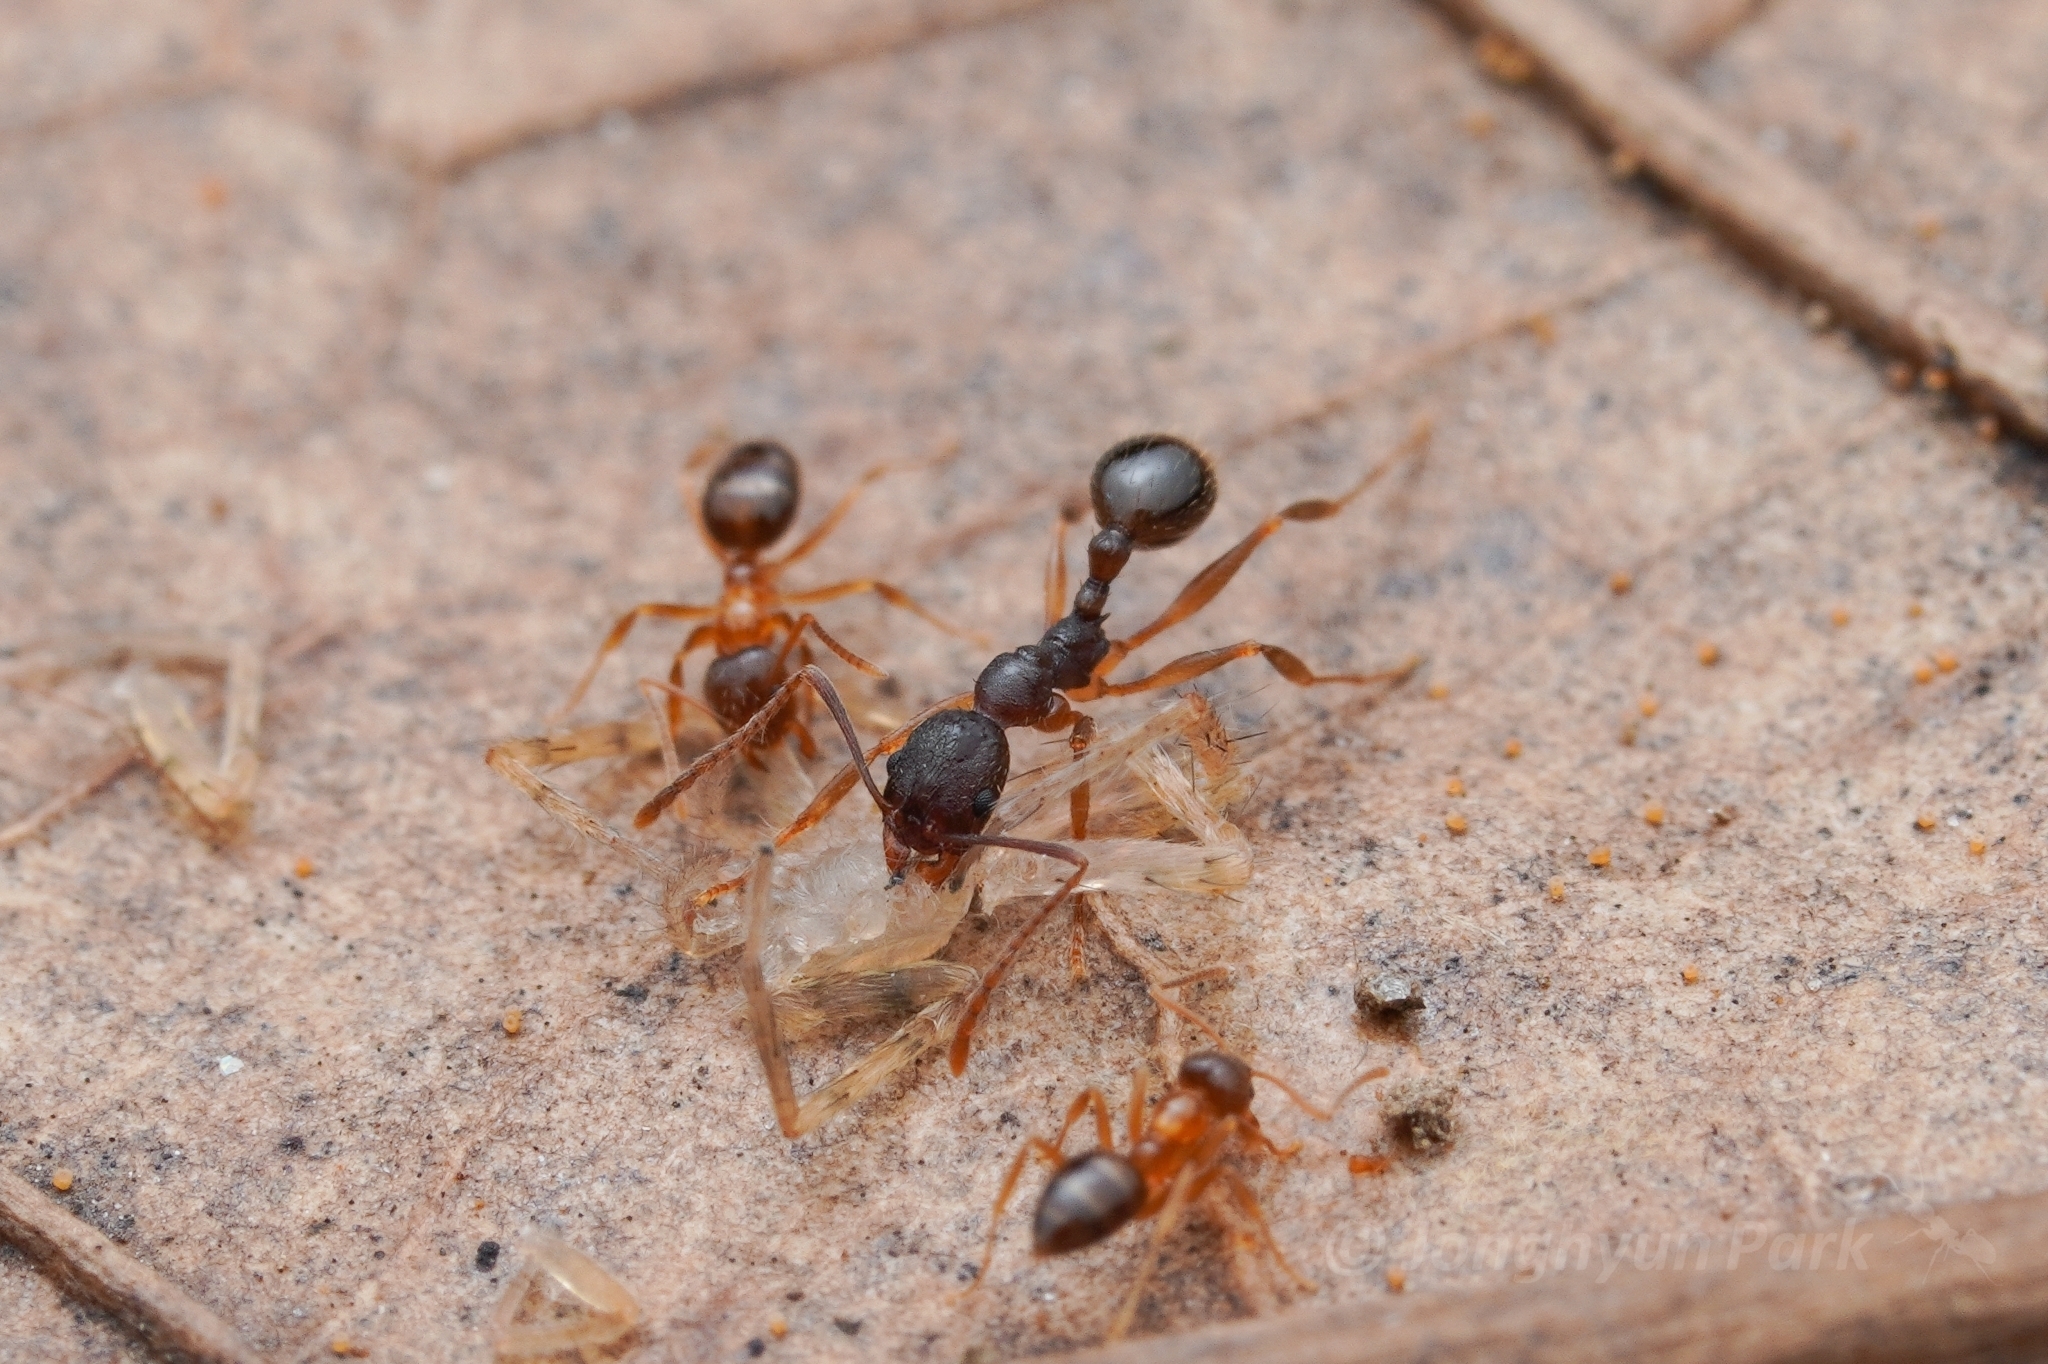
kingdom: Animalia
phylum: Arthropoda
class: Insecta
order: Hymenoptera
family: Formicidae
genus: Aphaenogaster
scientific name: Aphaenogaster rudis
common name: Winnow ant
